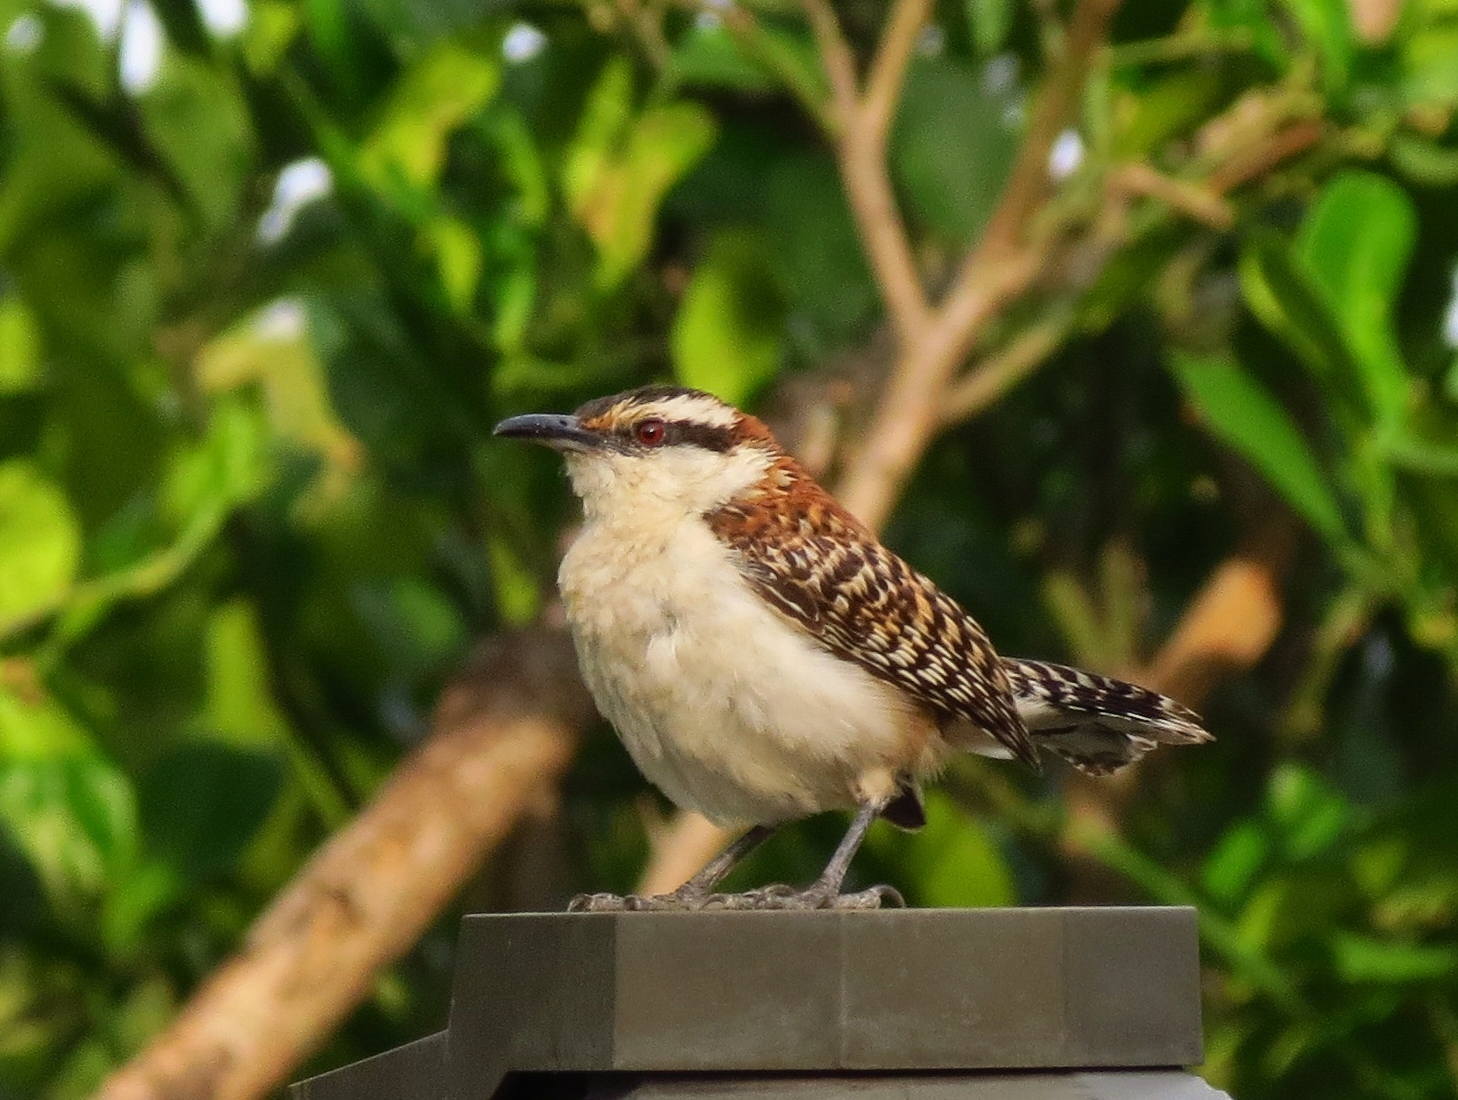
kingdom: Animalia
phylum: Chordata
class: Aves
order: Passeriformes
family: Troglodytidae
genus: Campylorhynchus
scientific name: Campylorhynchus rufinucha
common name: Rufous-naped wren
